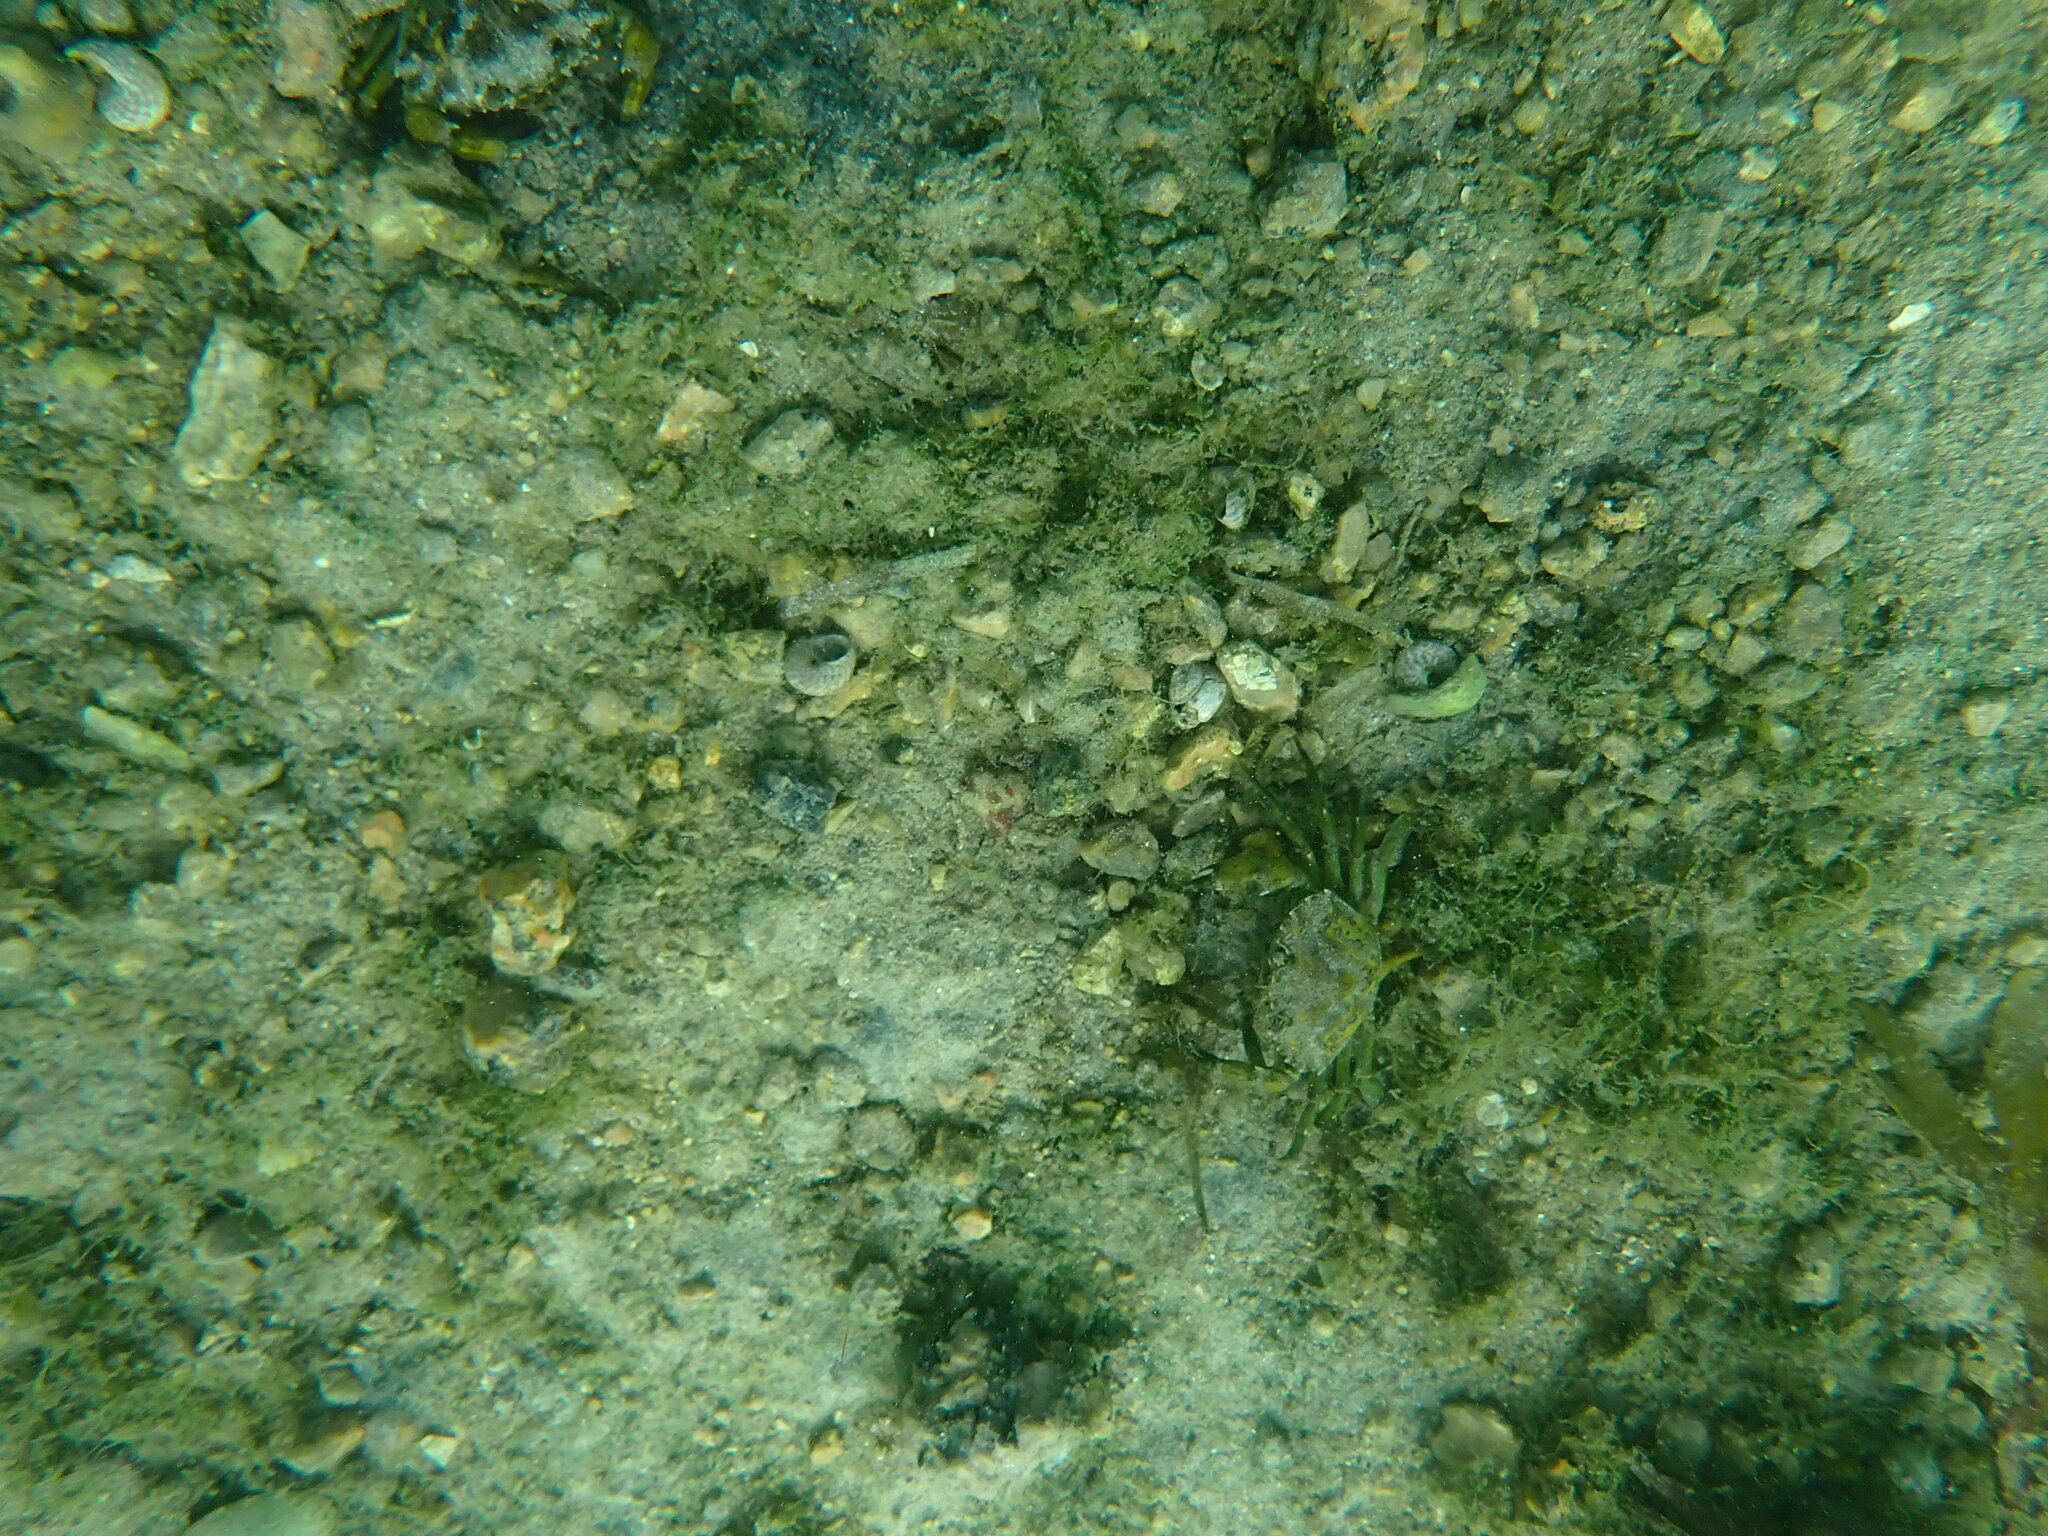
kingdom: Animalia
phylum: Arthropoda
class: Malacostraca
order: Decapoda
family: Carcinidae
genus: Carcinus
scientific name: Carcinus maenas
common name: European green crab
